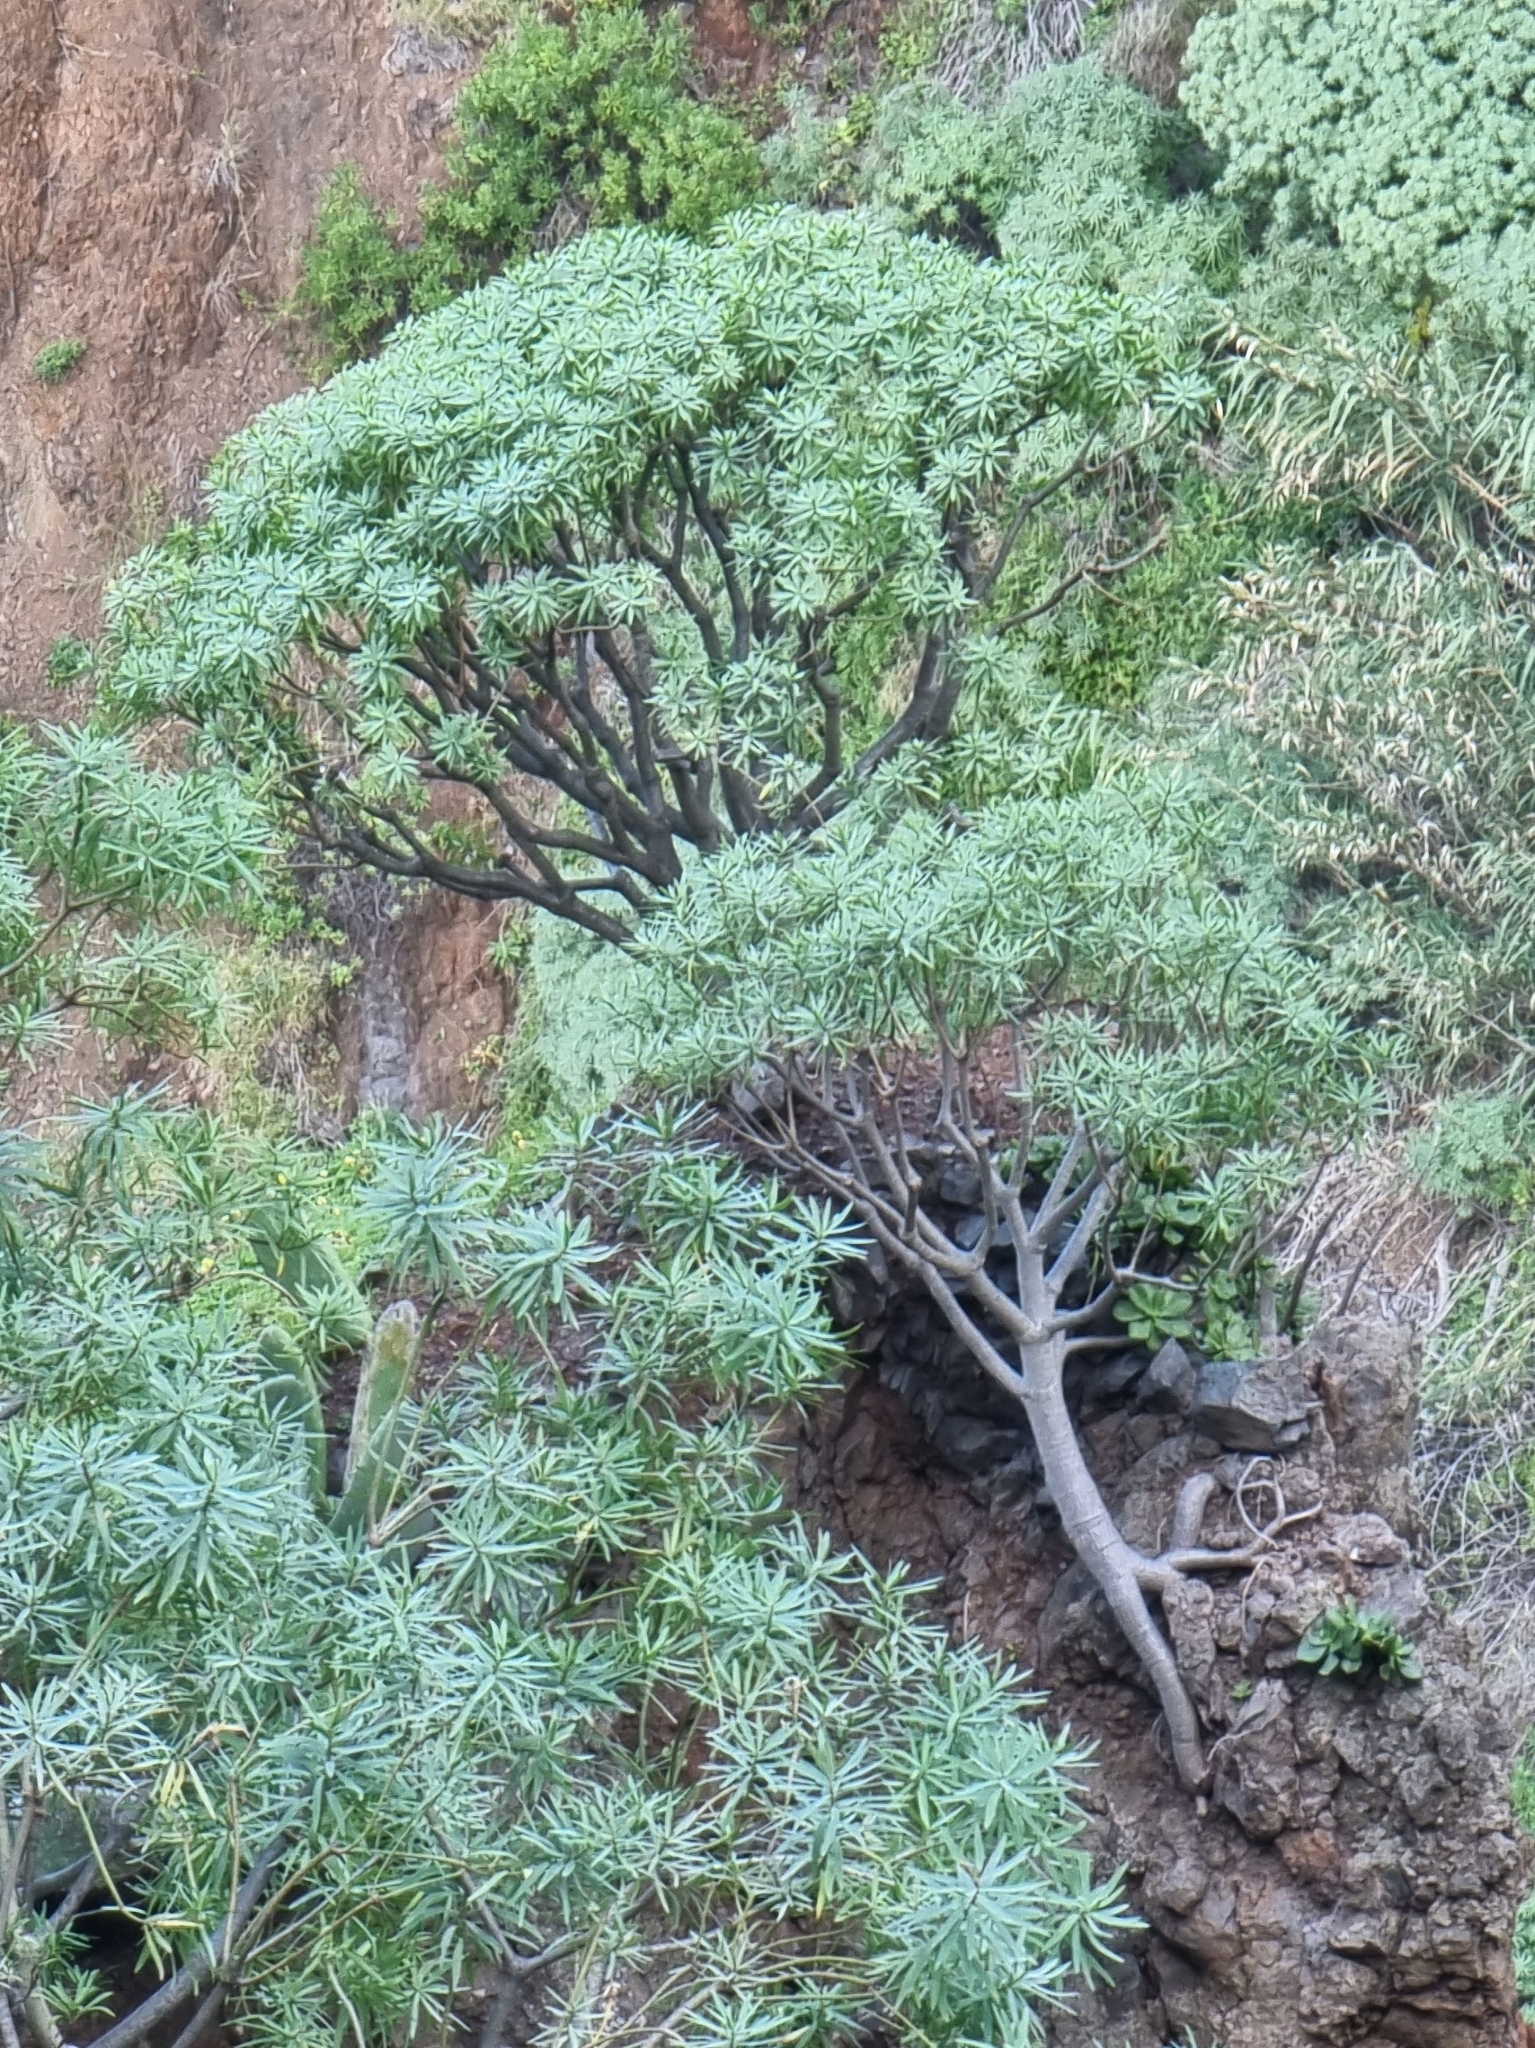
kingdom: Plantae
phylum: Tracheophyta
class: Magnoliopsida
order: Malpighiales
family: Euphorbiaceae
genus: Euphorbia
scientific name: Euphorbia piscatoria
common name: Fish-stunning spurge
